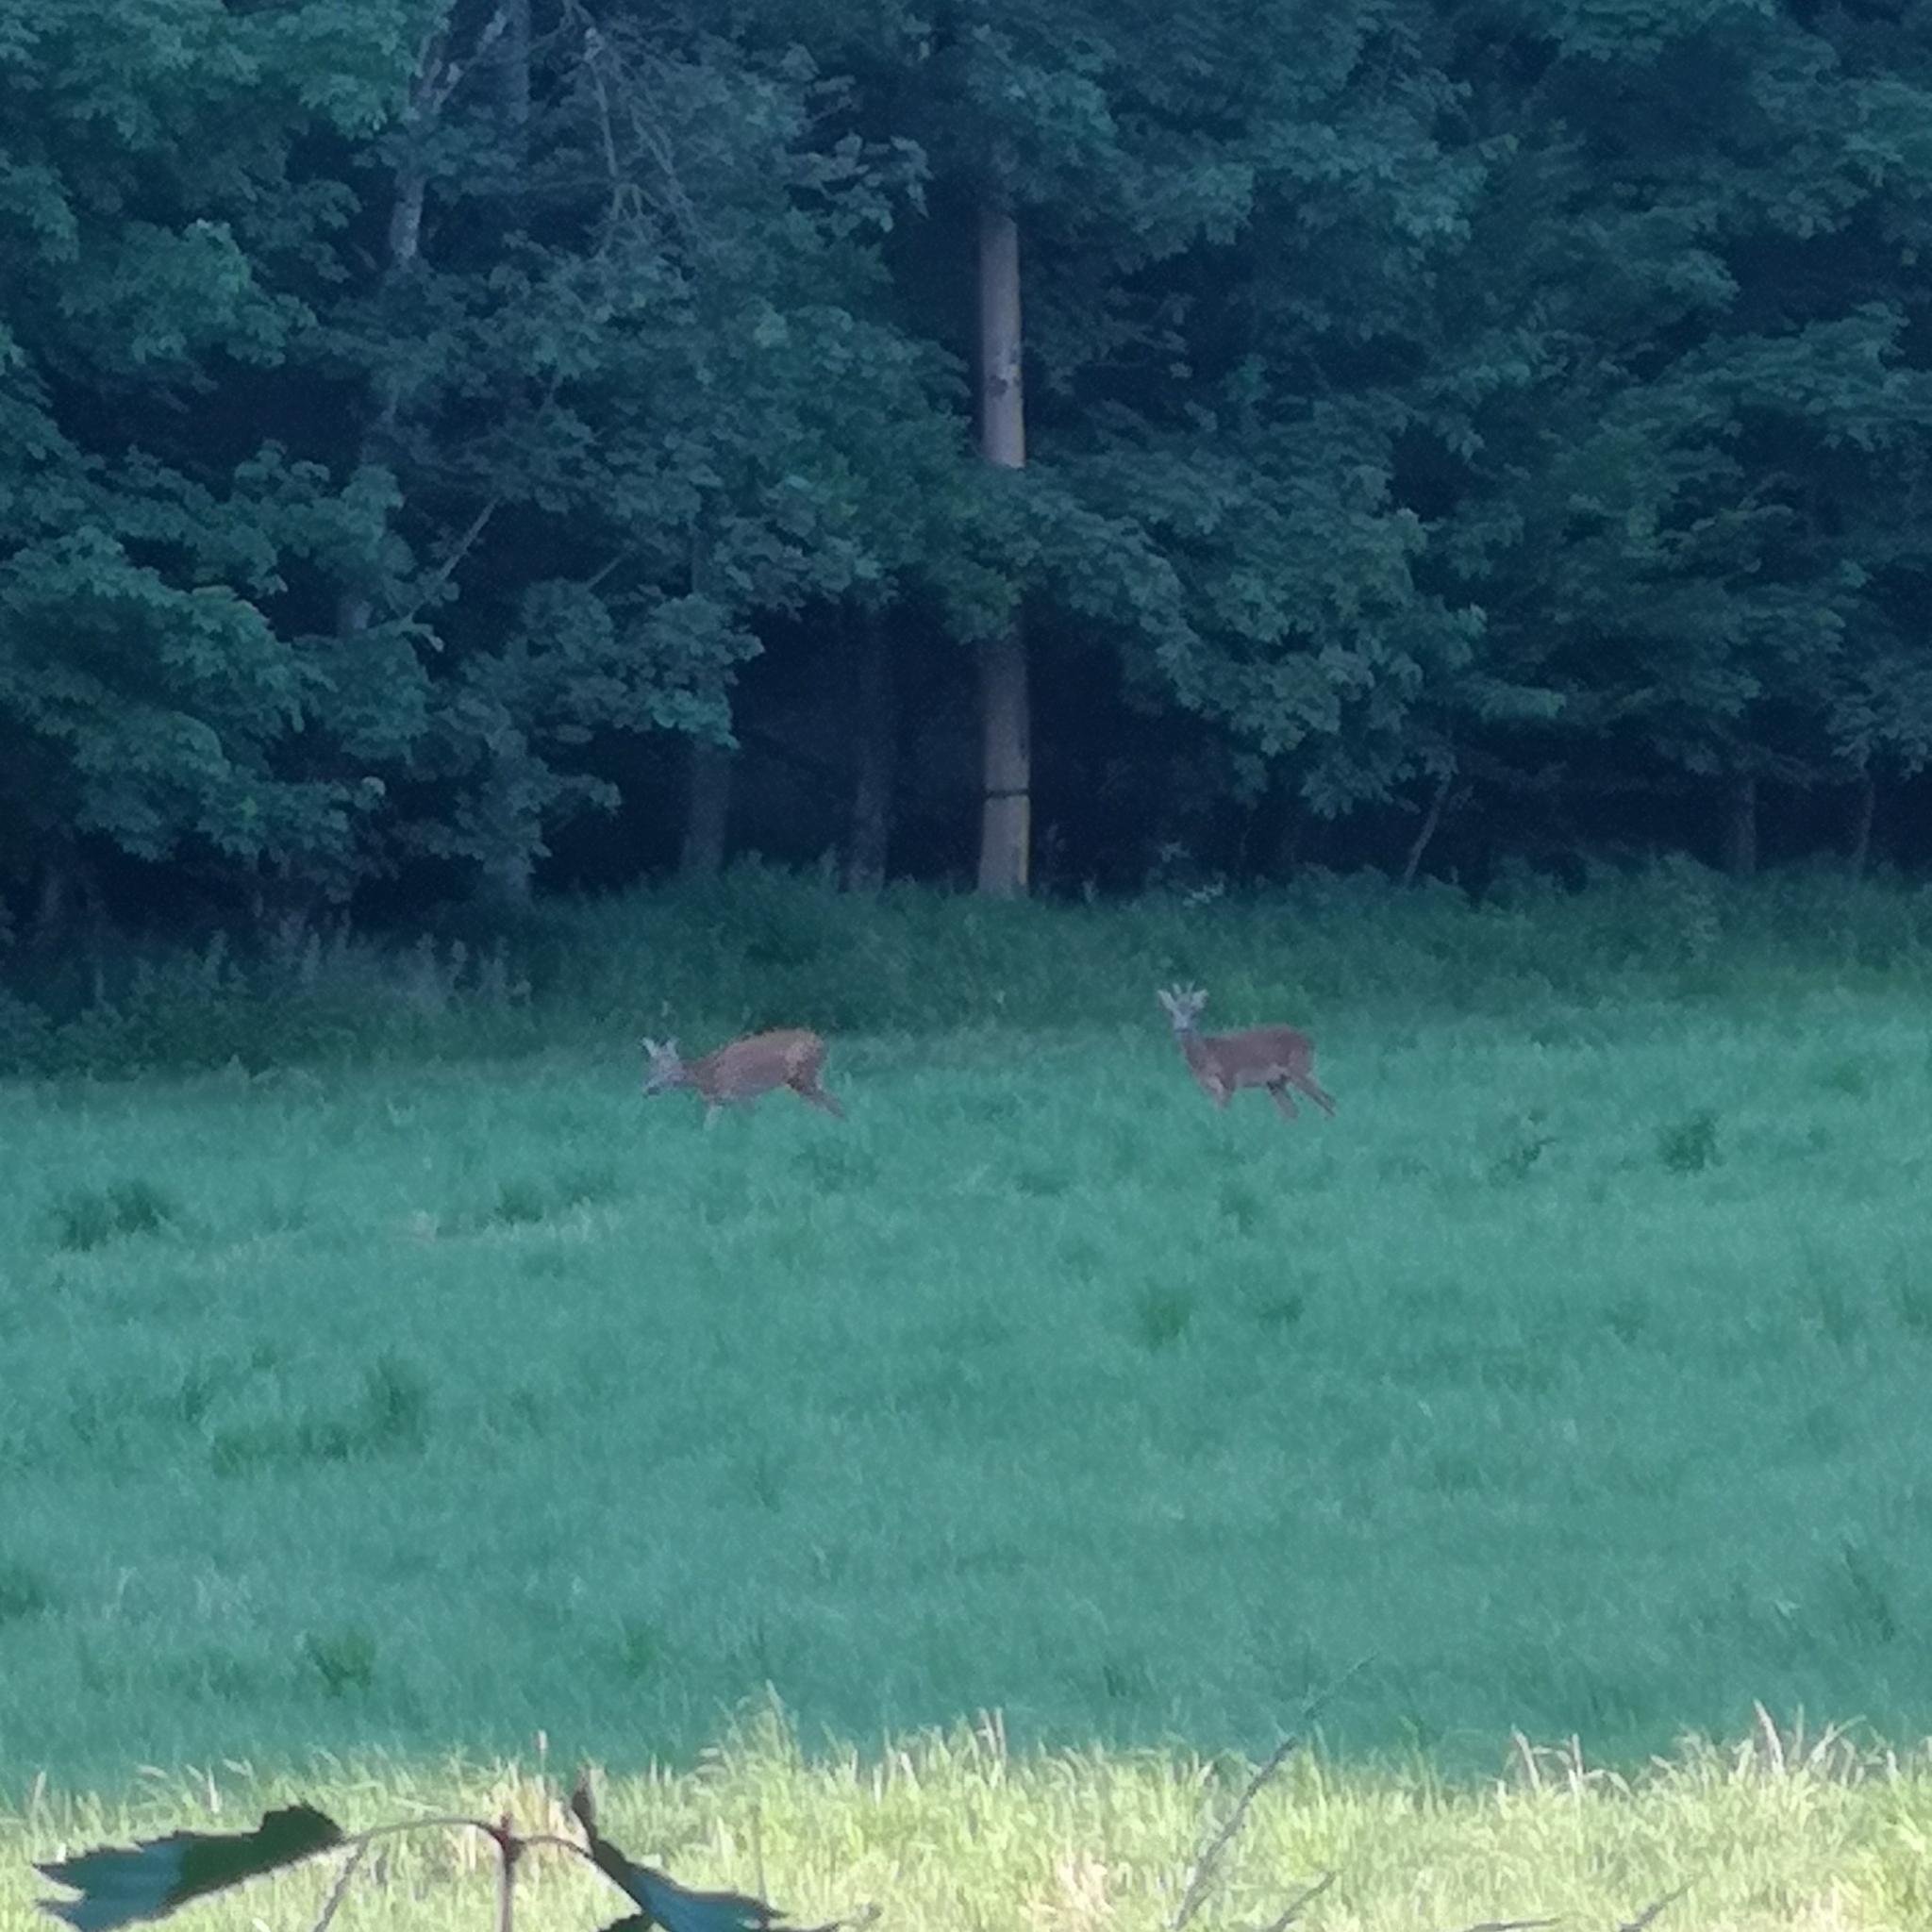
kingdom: Animalia
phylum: Chordata
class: Mammalia
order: Artiodactyla
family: Cervidae
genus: Capreolus
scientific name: Capreolus capreolus
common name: Western roe deer
